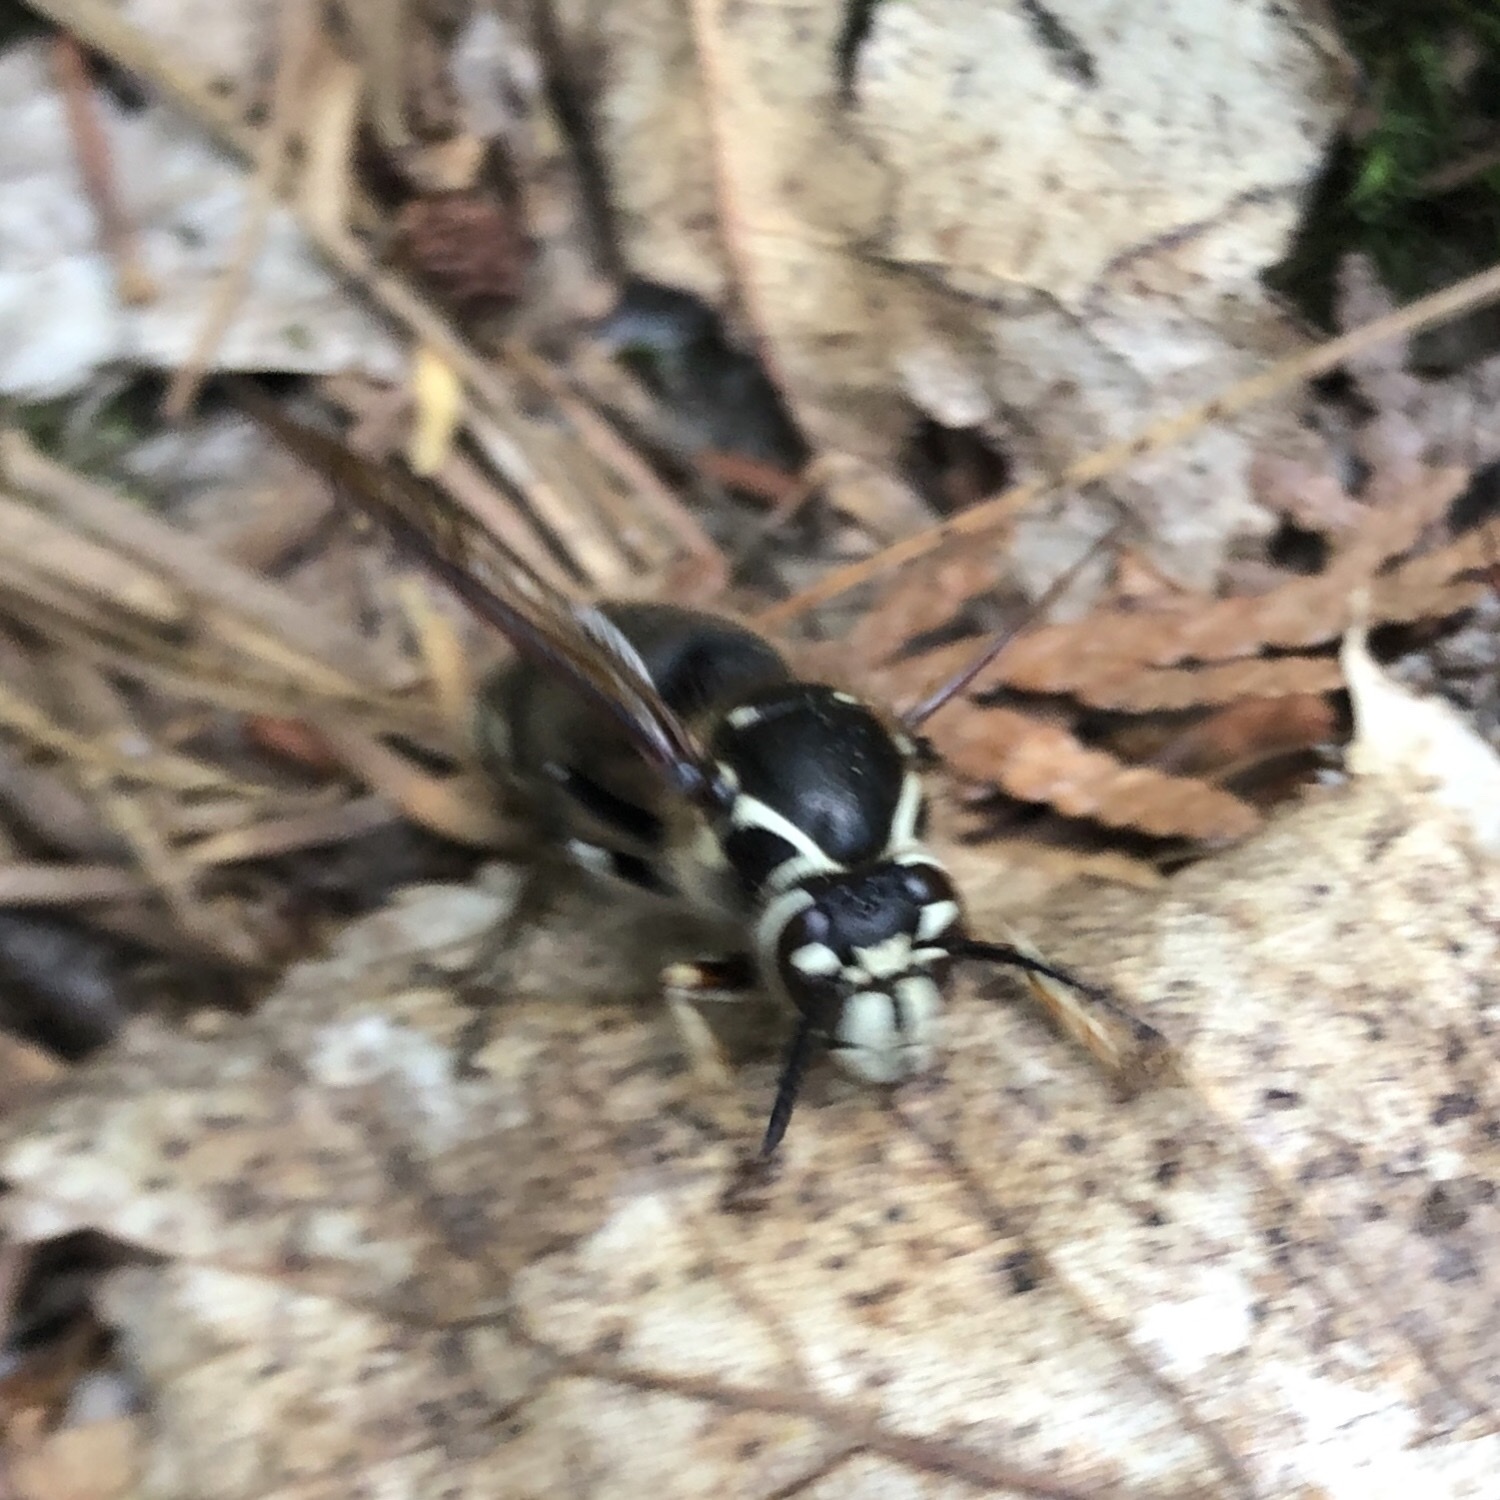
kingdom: Animalia
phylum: Arthropoda
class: Insecta
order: Hymenoptera
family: Vespidae
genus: Dolichovespula
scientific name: Dolichovespula maculata
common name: Bald-faced hornet
